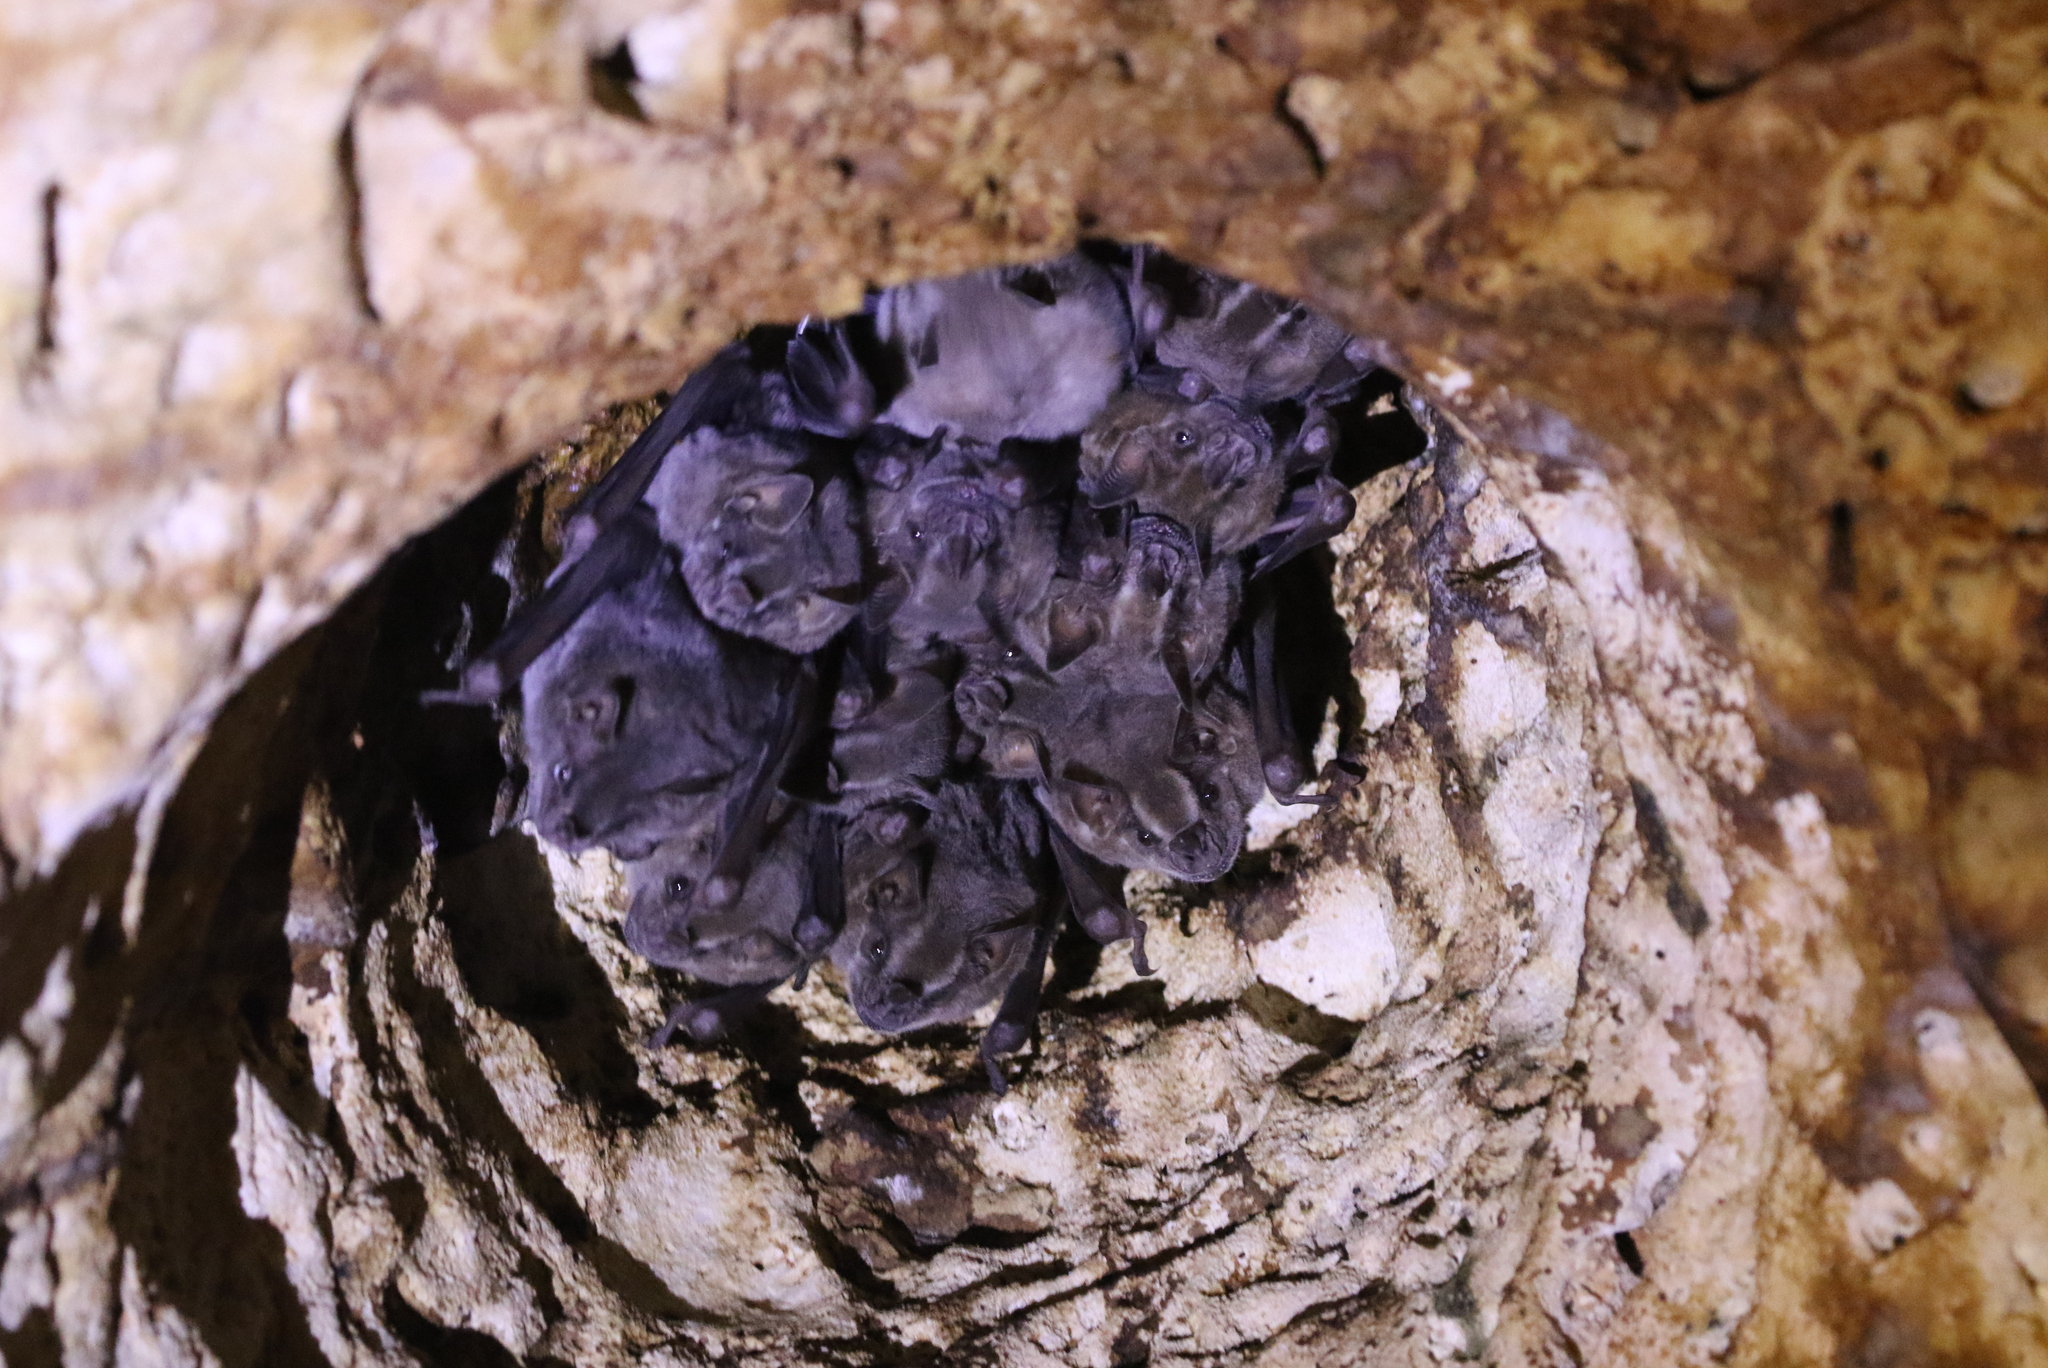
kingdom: Animalia
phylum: Chordata
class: Mammalia
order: Chiroptera
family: Phyllostomidae
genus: Artibeus
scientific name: Artibeus jamaicensis
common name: Jamaican fruit-eating bat
